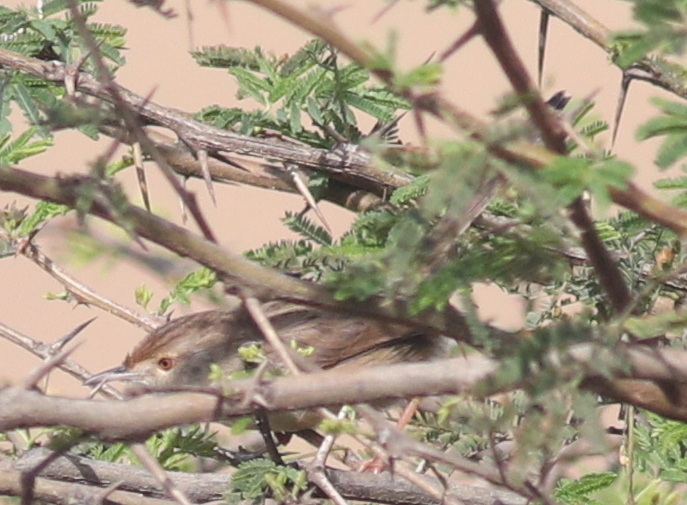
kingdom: Animalia
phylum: Chordata
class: Aves
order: Passeriformes
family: Cisticolidae
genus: Prinia
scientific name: Prinia gracilis
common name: Graceful prinia
